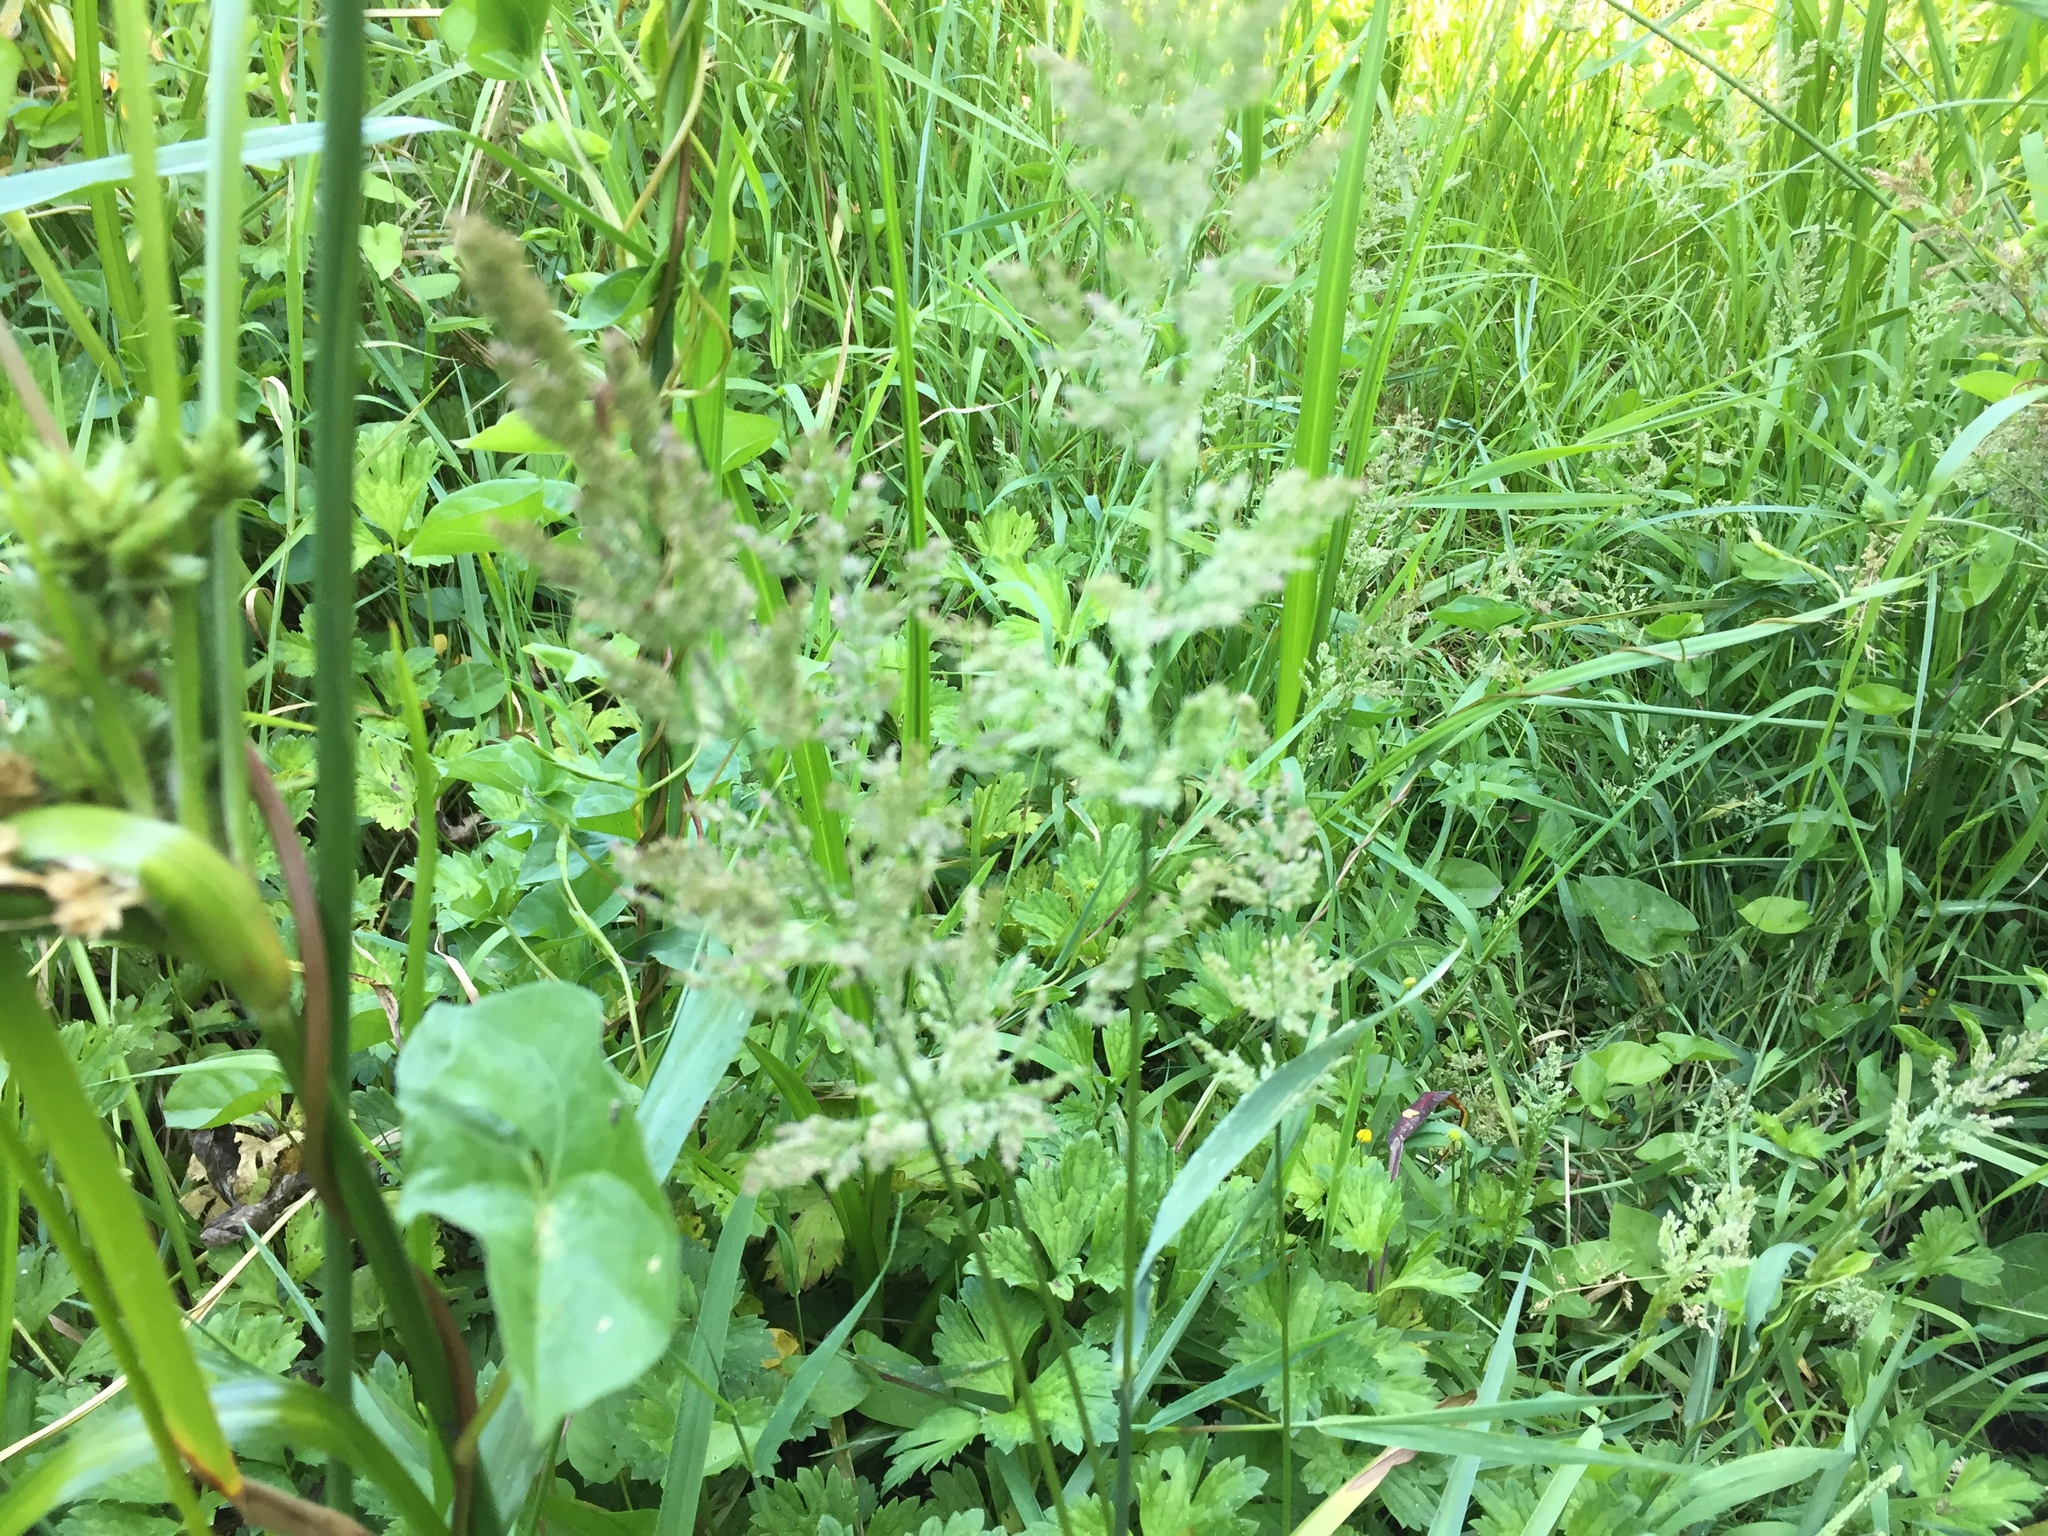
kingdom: Plantae
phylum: Tracheophyta
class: Liliopsida
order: Poales
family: Poaceae
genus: Agrostis
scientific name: Agrostis stolonifera
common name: Creeping bentgrass
